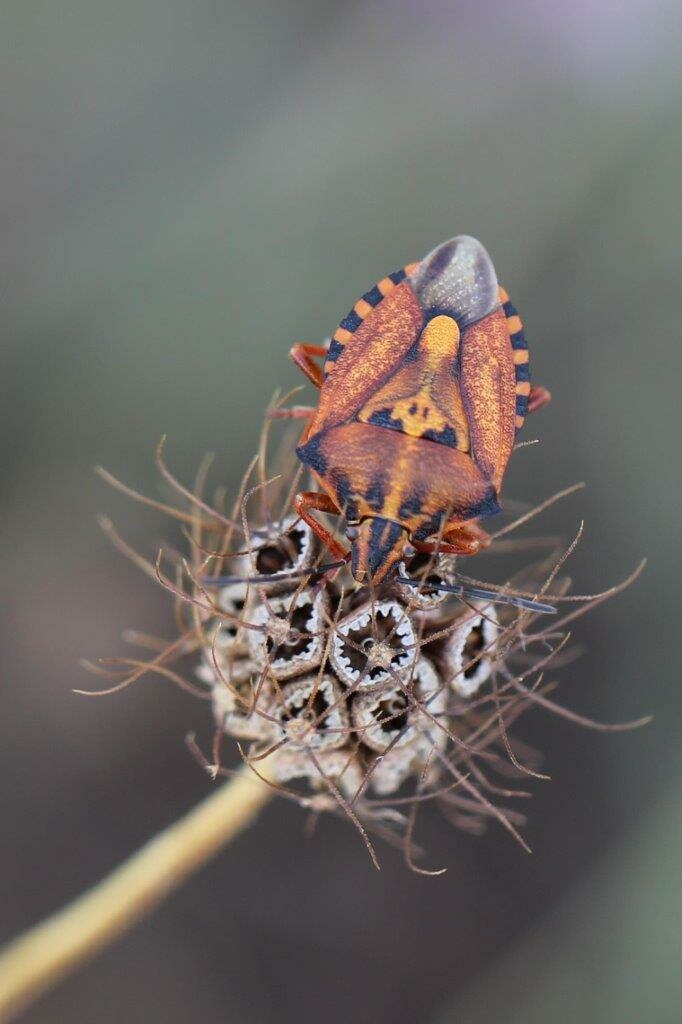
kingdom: Animalia
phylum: Arthropoda
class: Insecta
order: Hemiptera
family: Pentatomidae
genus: Carpocoris
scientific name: Carpocoris mediterraneus
